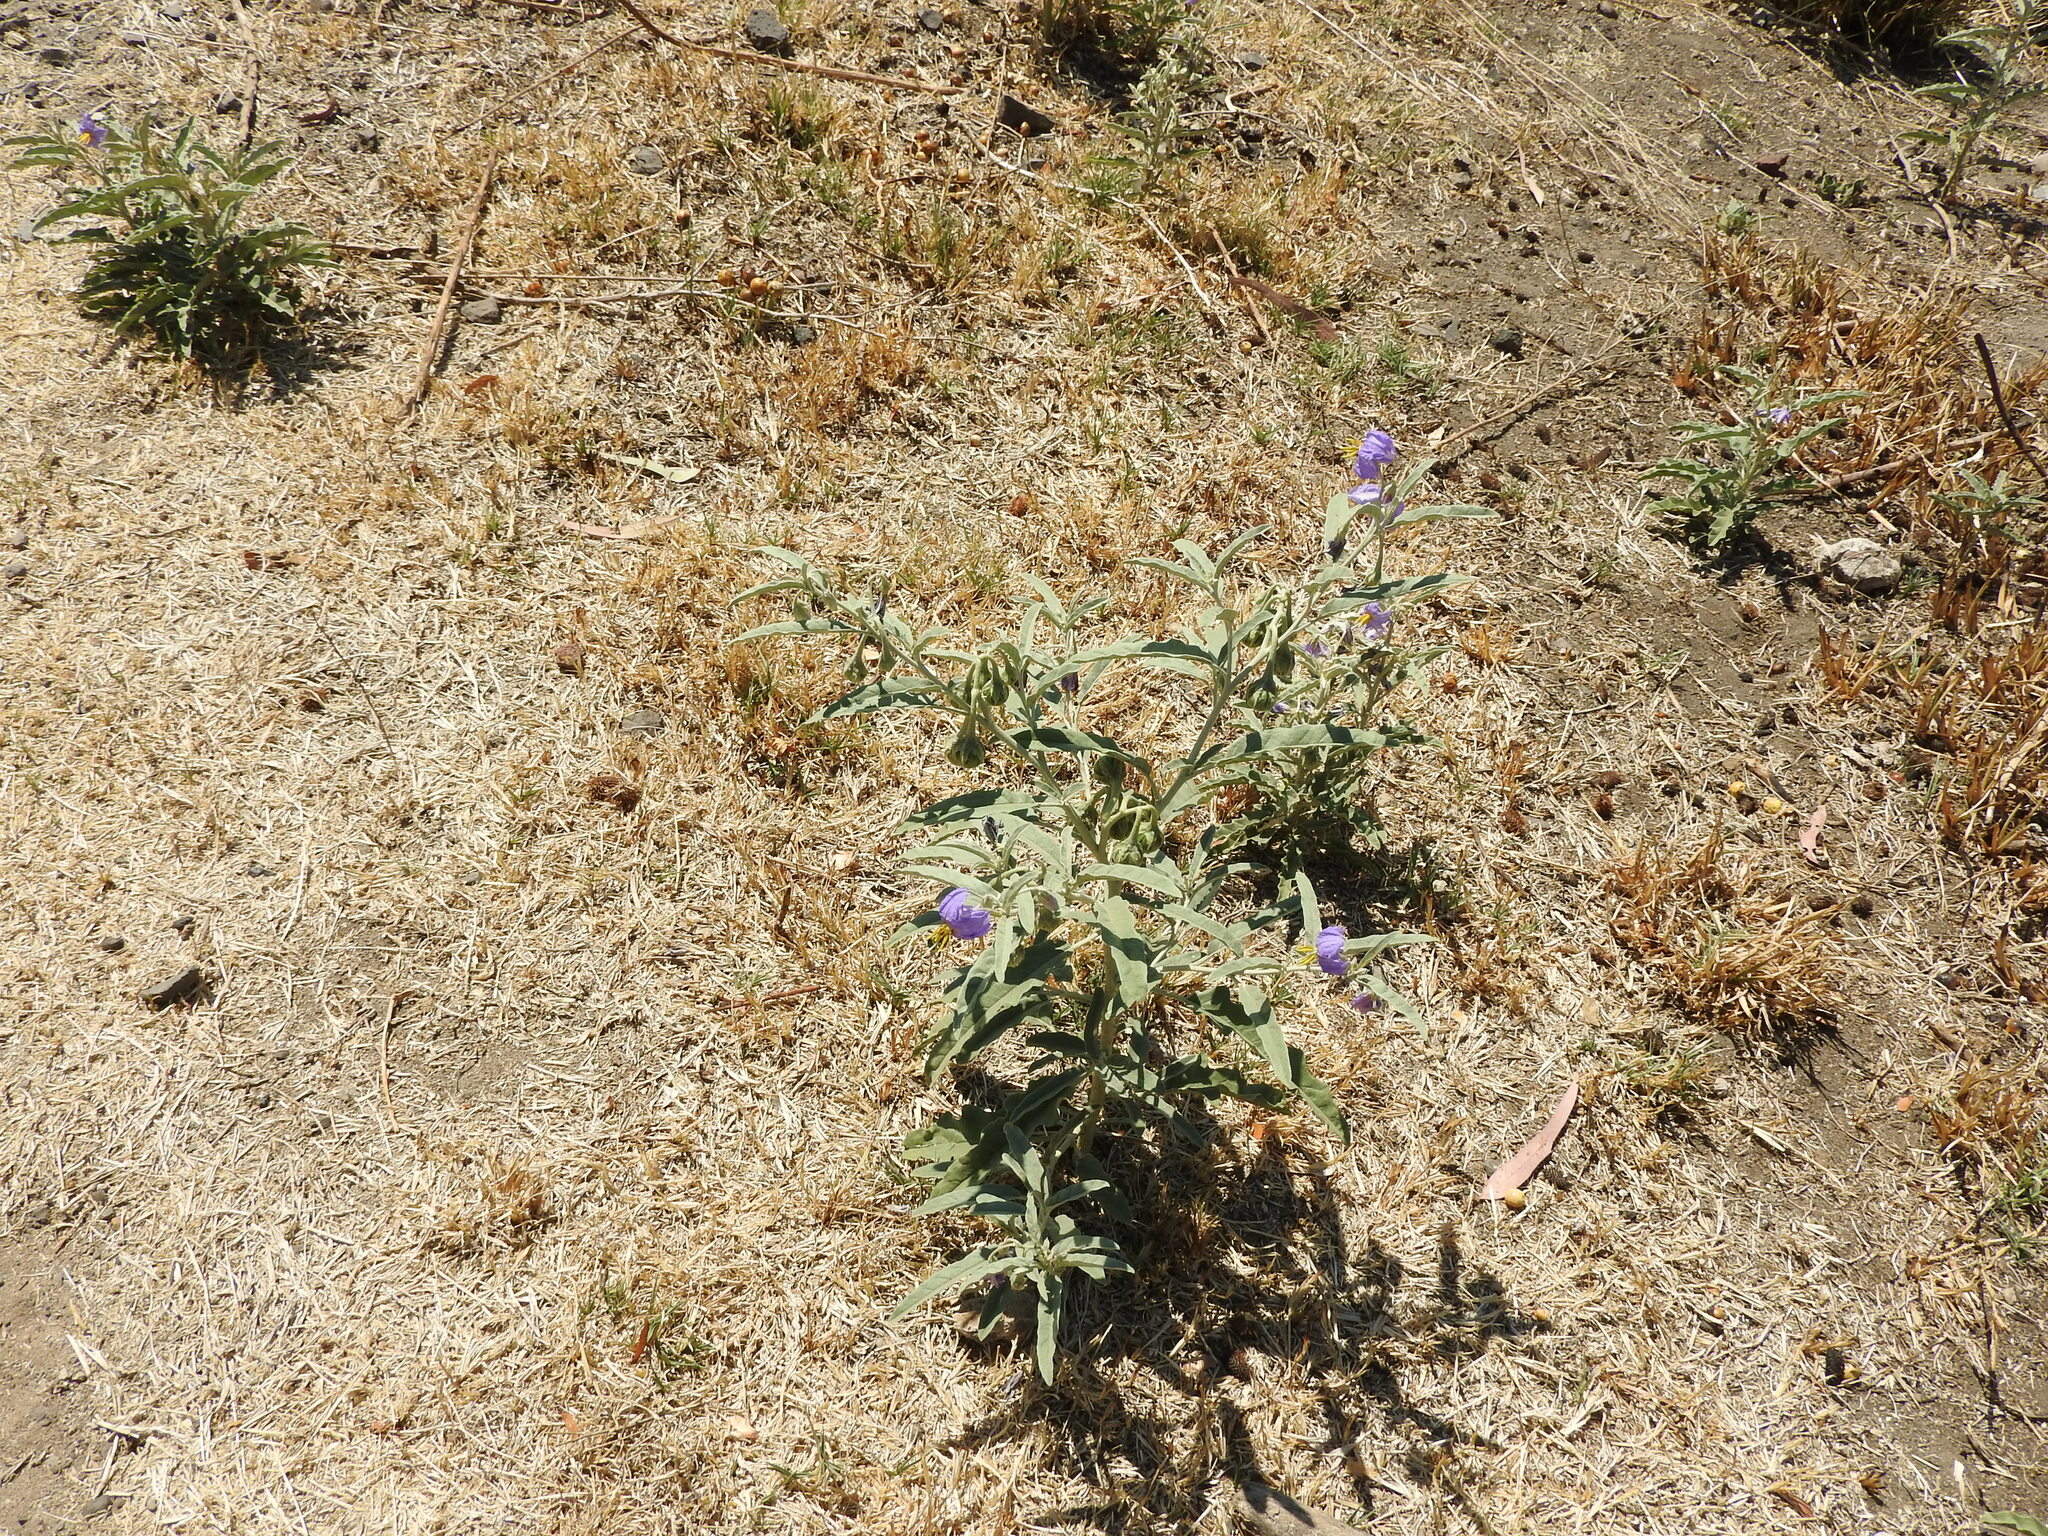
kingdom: Plantae
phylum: Tracheophyta
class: Magnoliopsida
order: Solanales
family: Solanaceae
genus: Solanum
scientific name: Solanum elaeagnifolium
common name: Silverleaf nightshade
